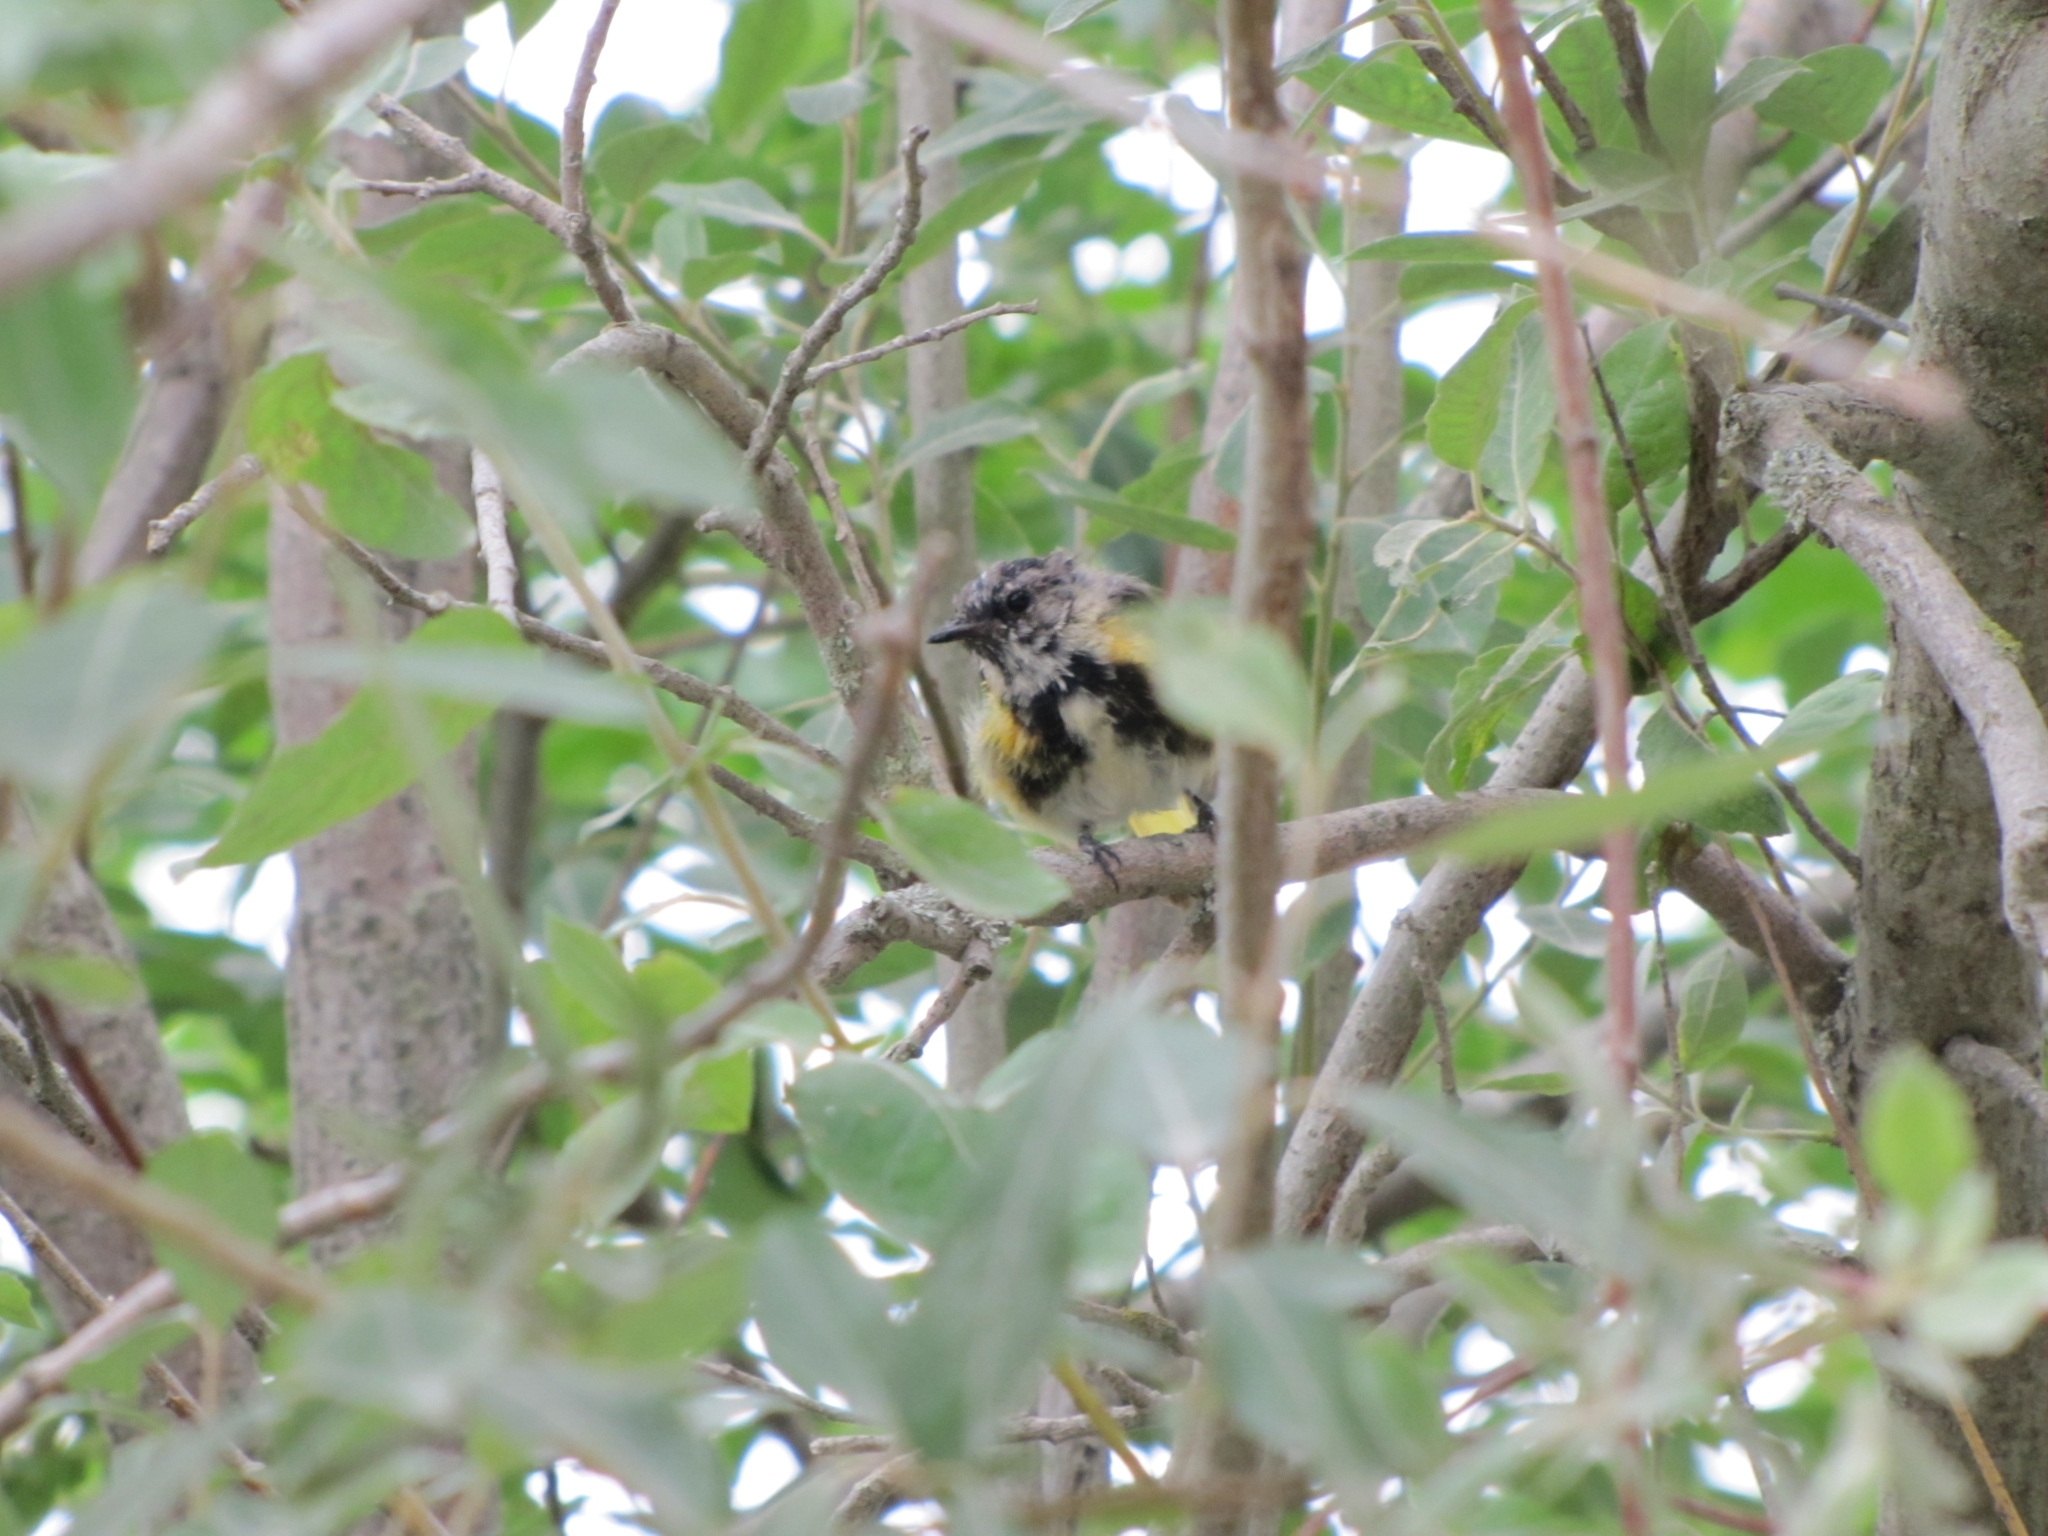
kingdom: Animalia
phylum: Chordata
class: Aves
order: Passeriformes
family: Parulidae
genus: Setophaga
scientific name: Setophaga ruticilla
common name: American redstart
